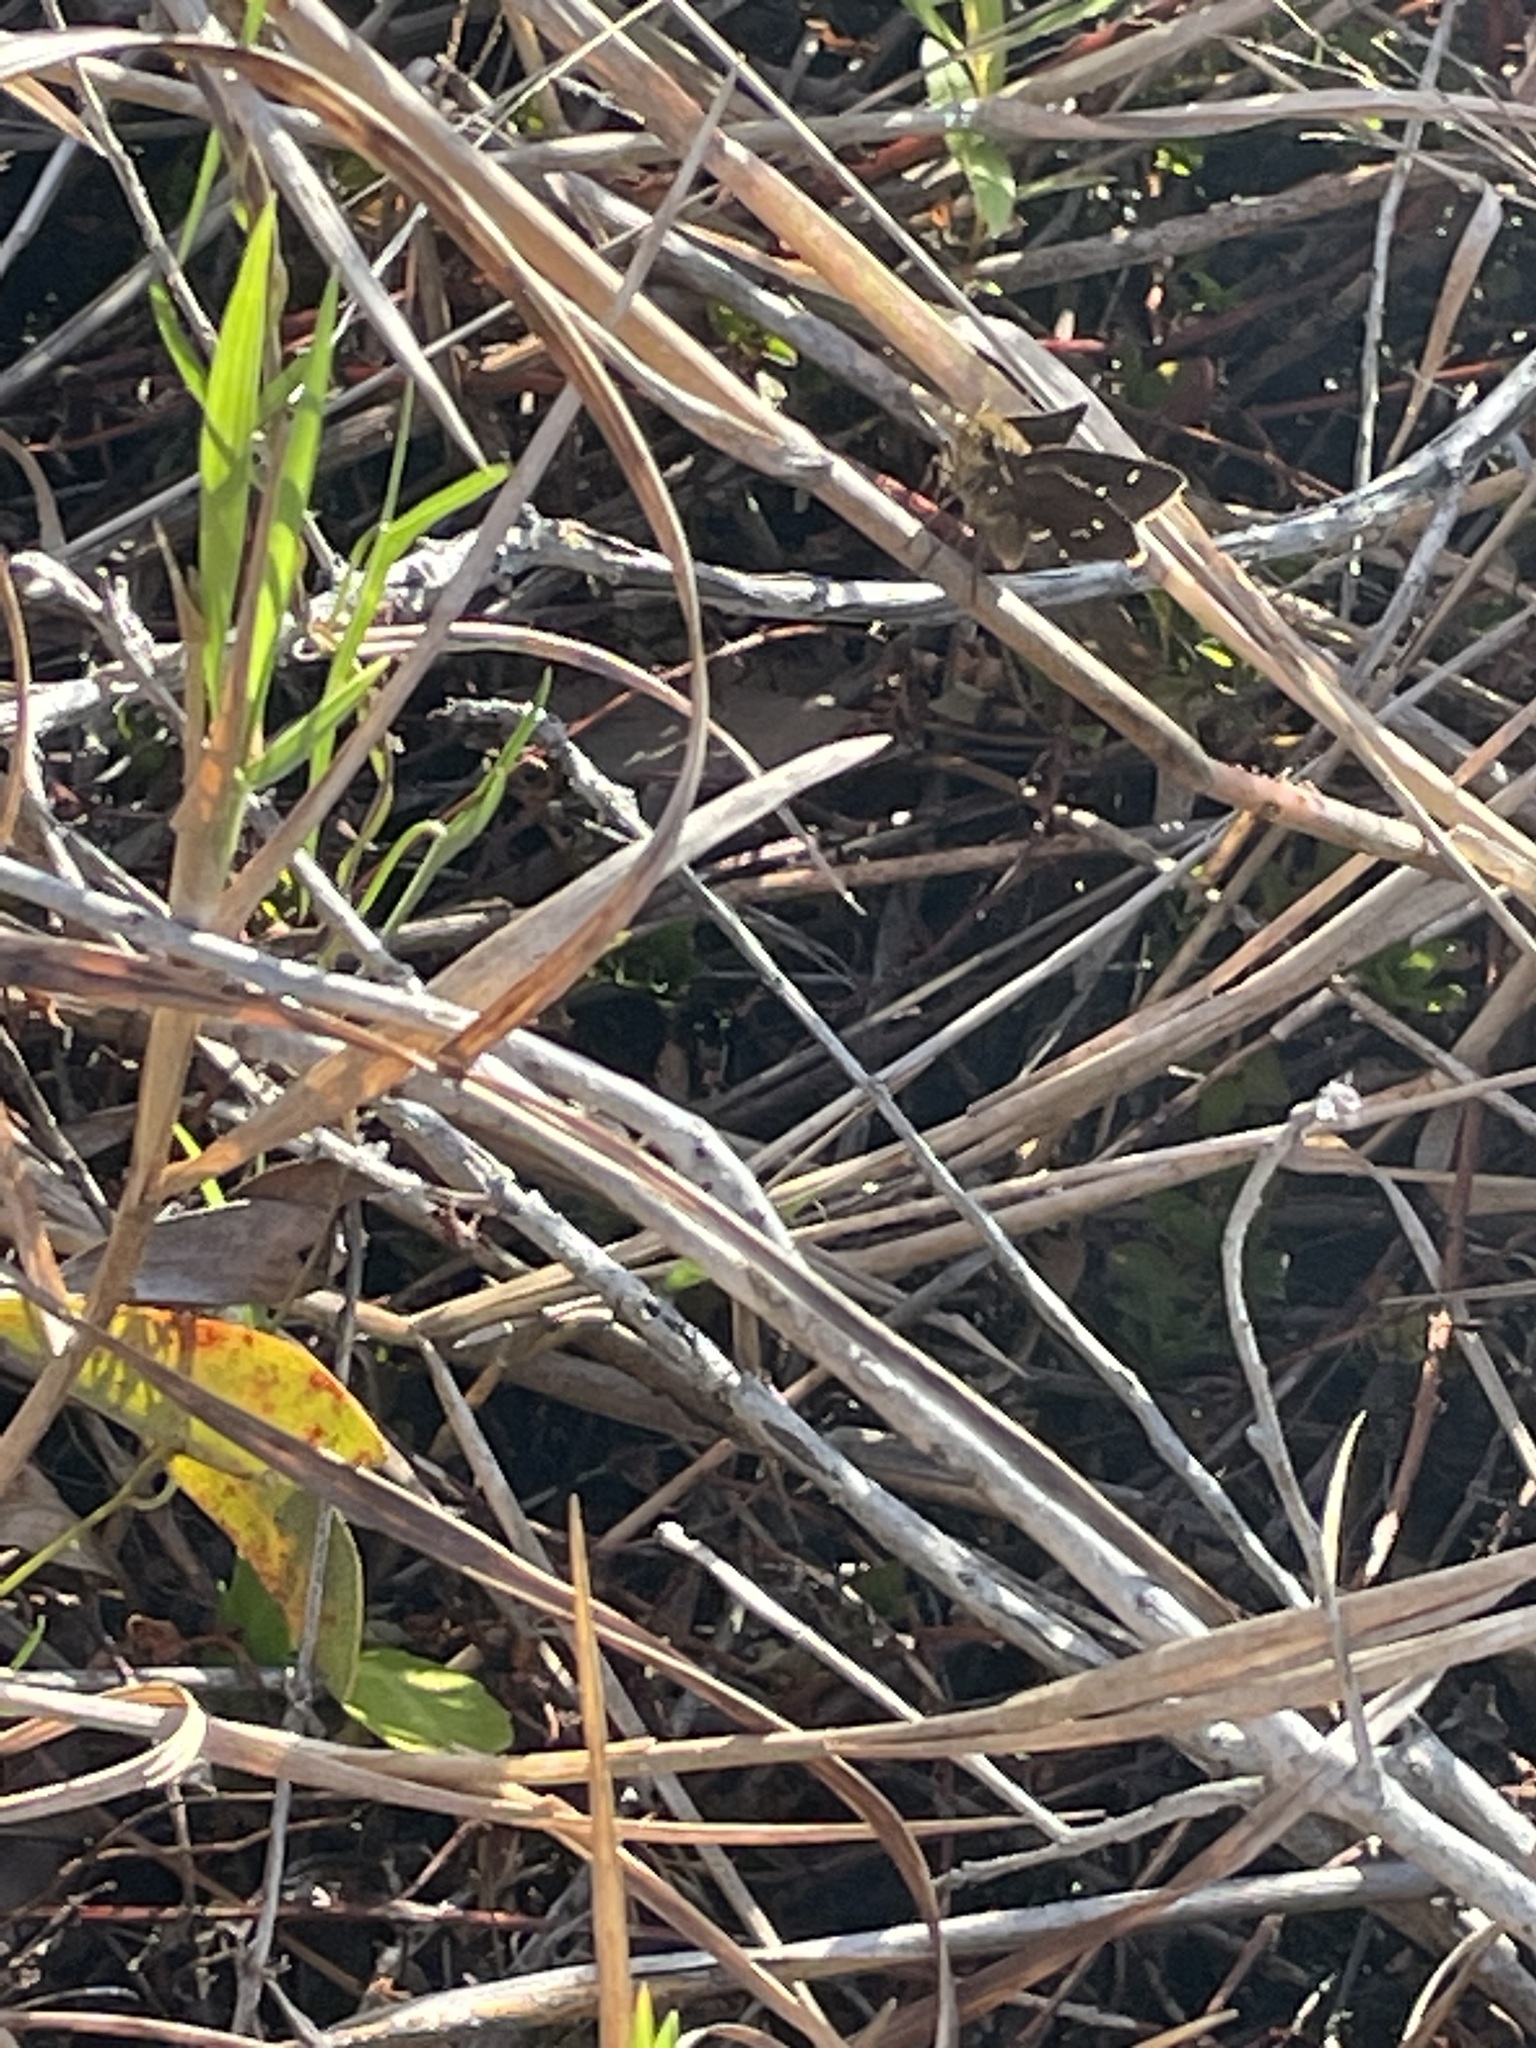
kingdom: Animalia
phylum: Arthropoda
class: Insecta
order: Lepidoptera
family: Hesperiidae
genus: Oligoria
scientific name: Oligoria maculata
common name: Twin-spot skipper
